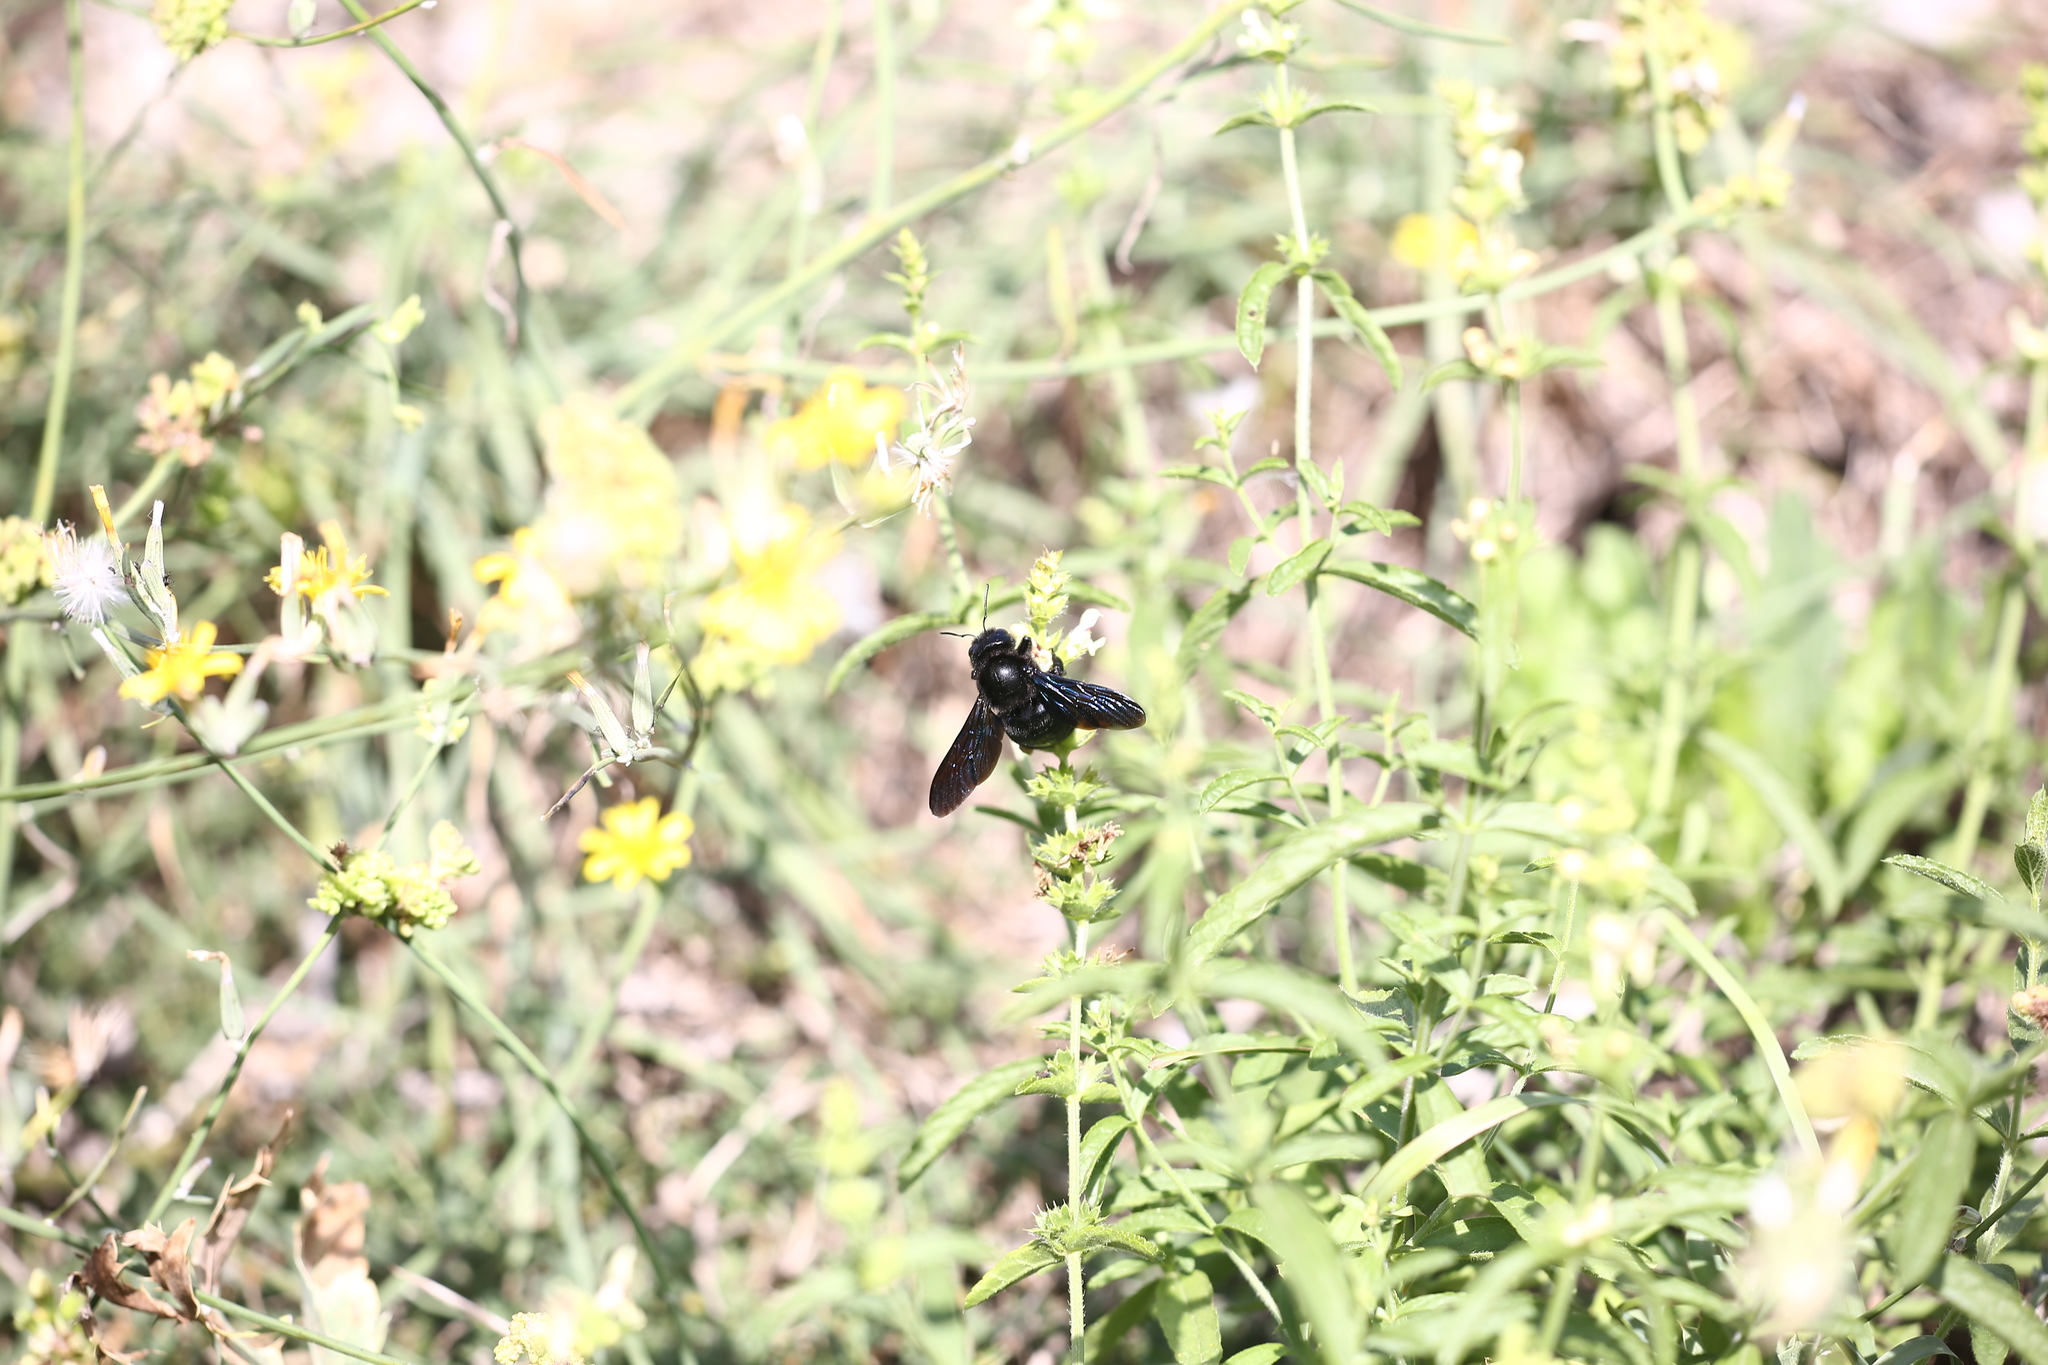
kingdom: Animalia
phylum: Arthropoda
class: Insecta
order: Hymenoptera
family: Apidae
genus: Xylocopa
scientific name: Xylocopa violacea
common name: Violet carpenter bee
